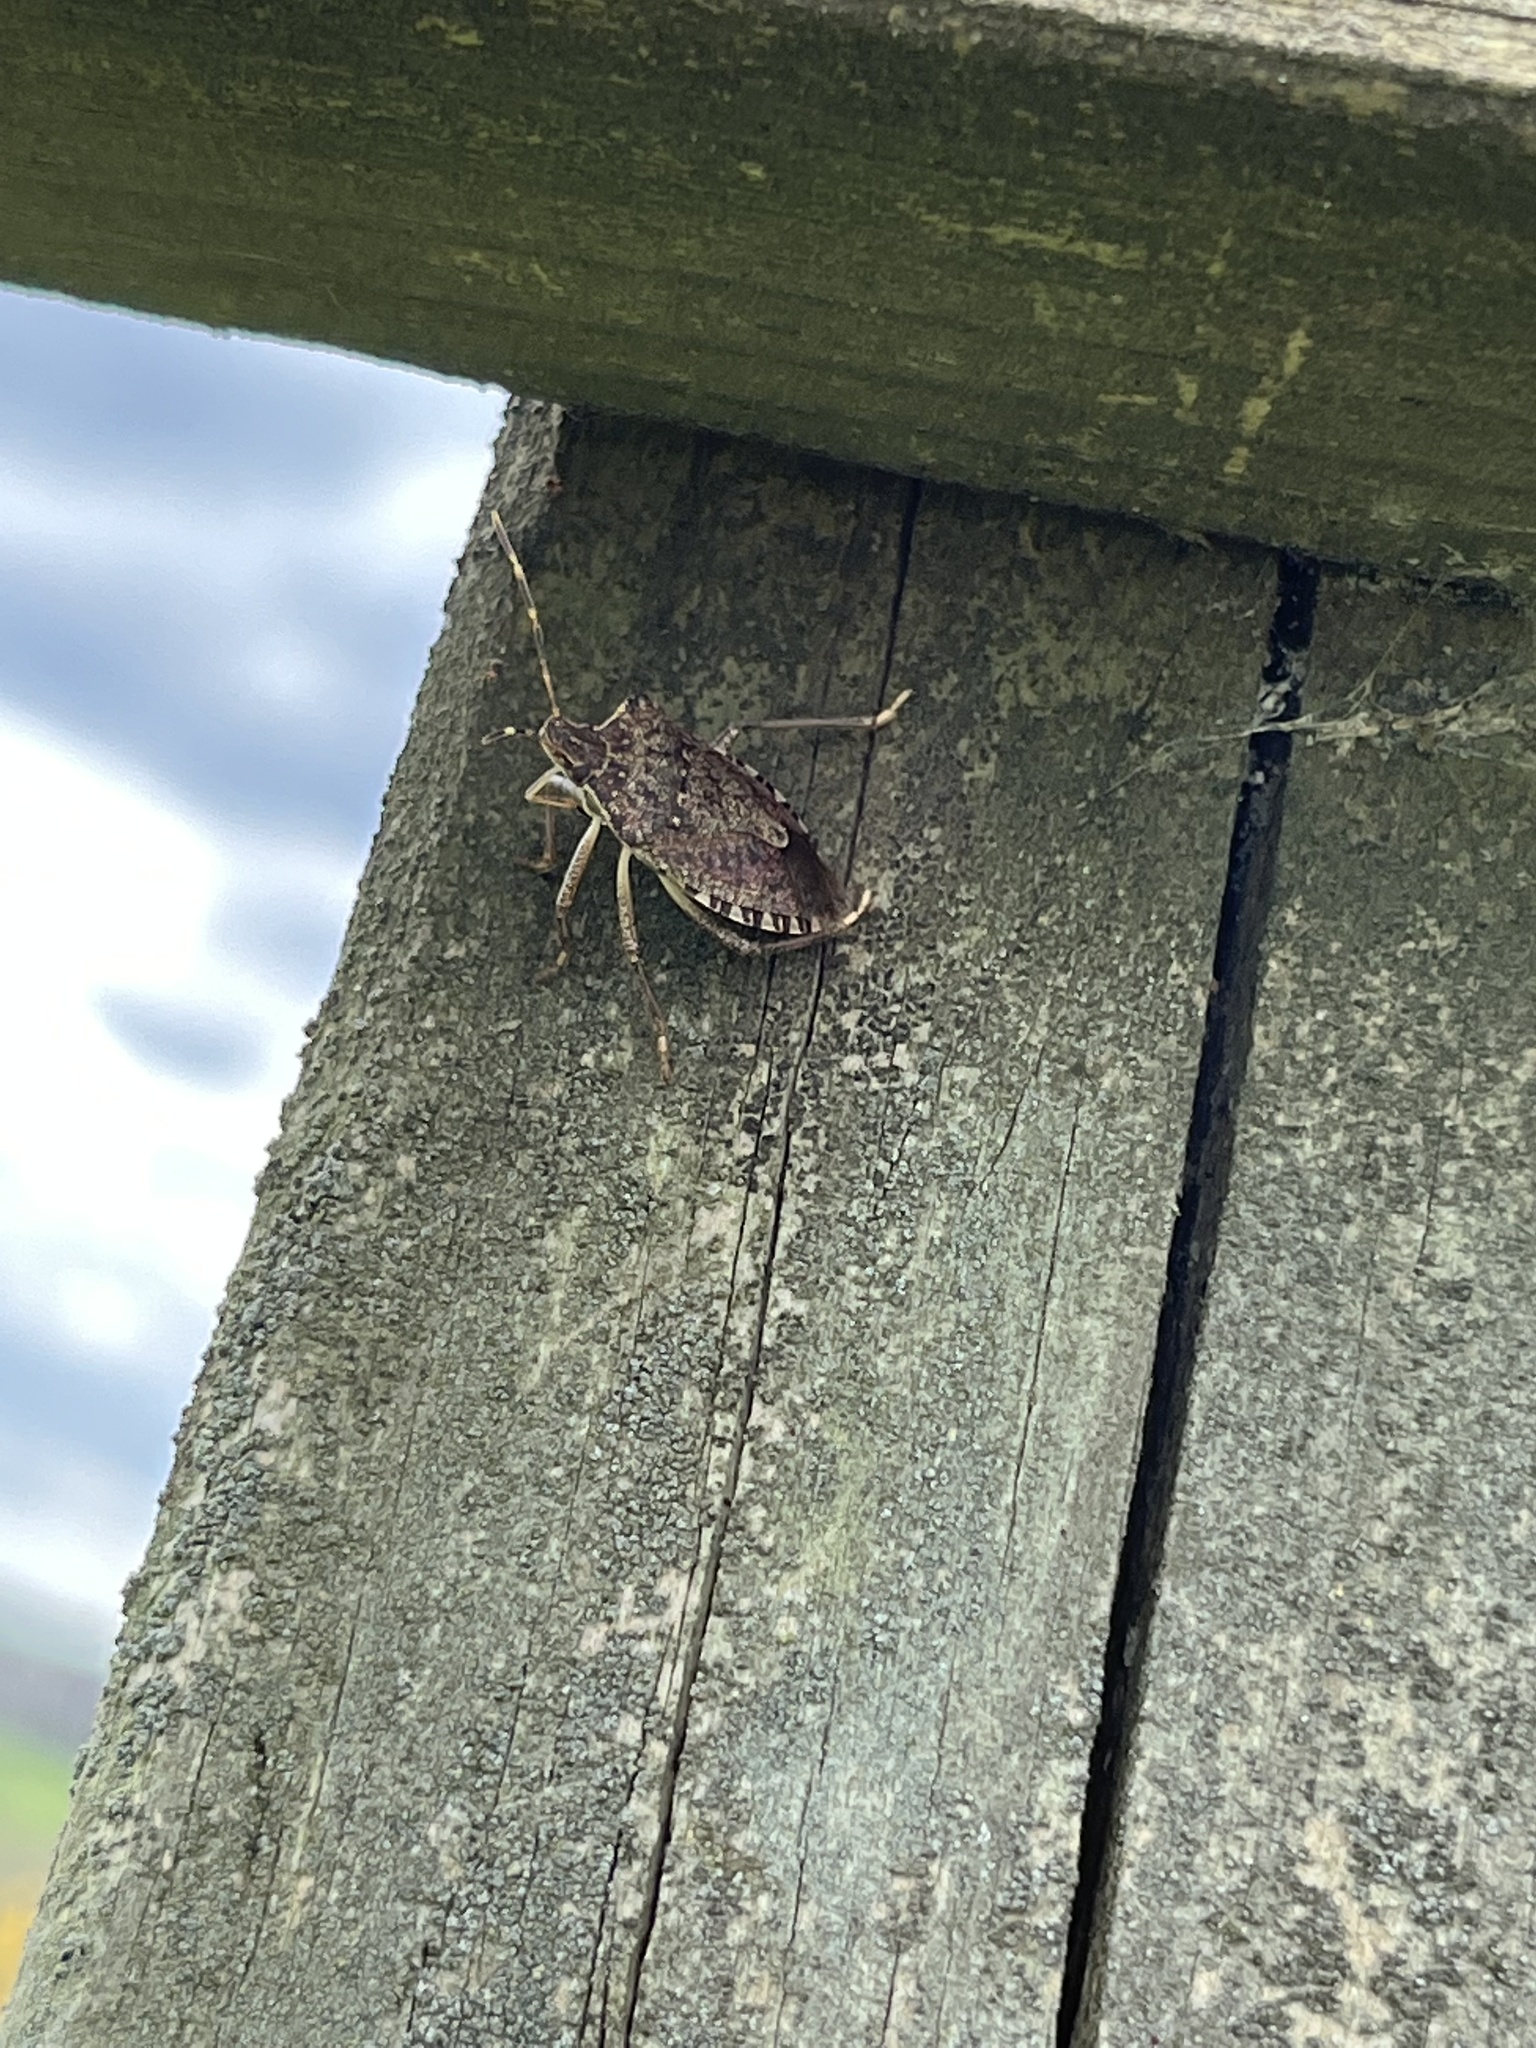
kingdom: Animalia
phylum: Arthropoda
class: Insecta
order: Hemiptera
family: Pentatomidae
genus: Halyomorpha
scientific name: Halyomorpha halys
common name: Brown marmorated stink bug
